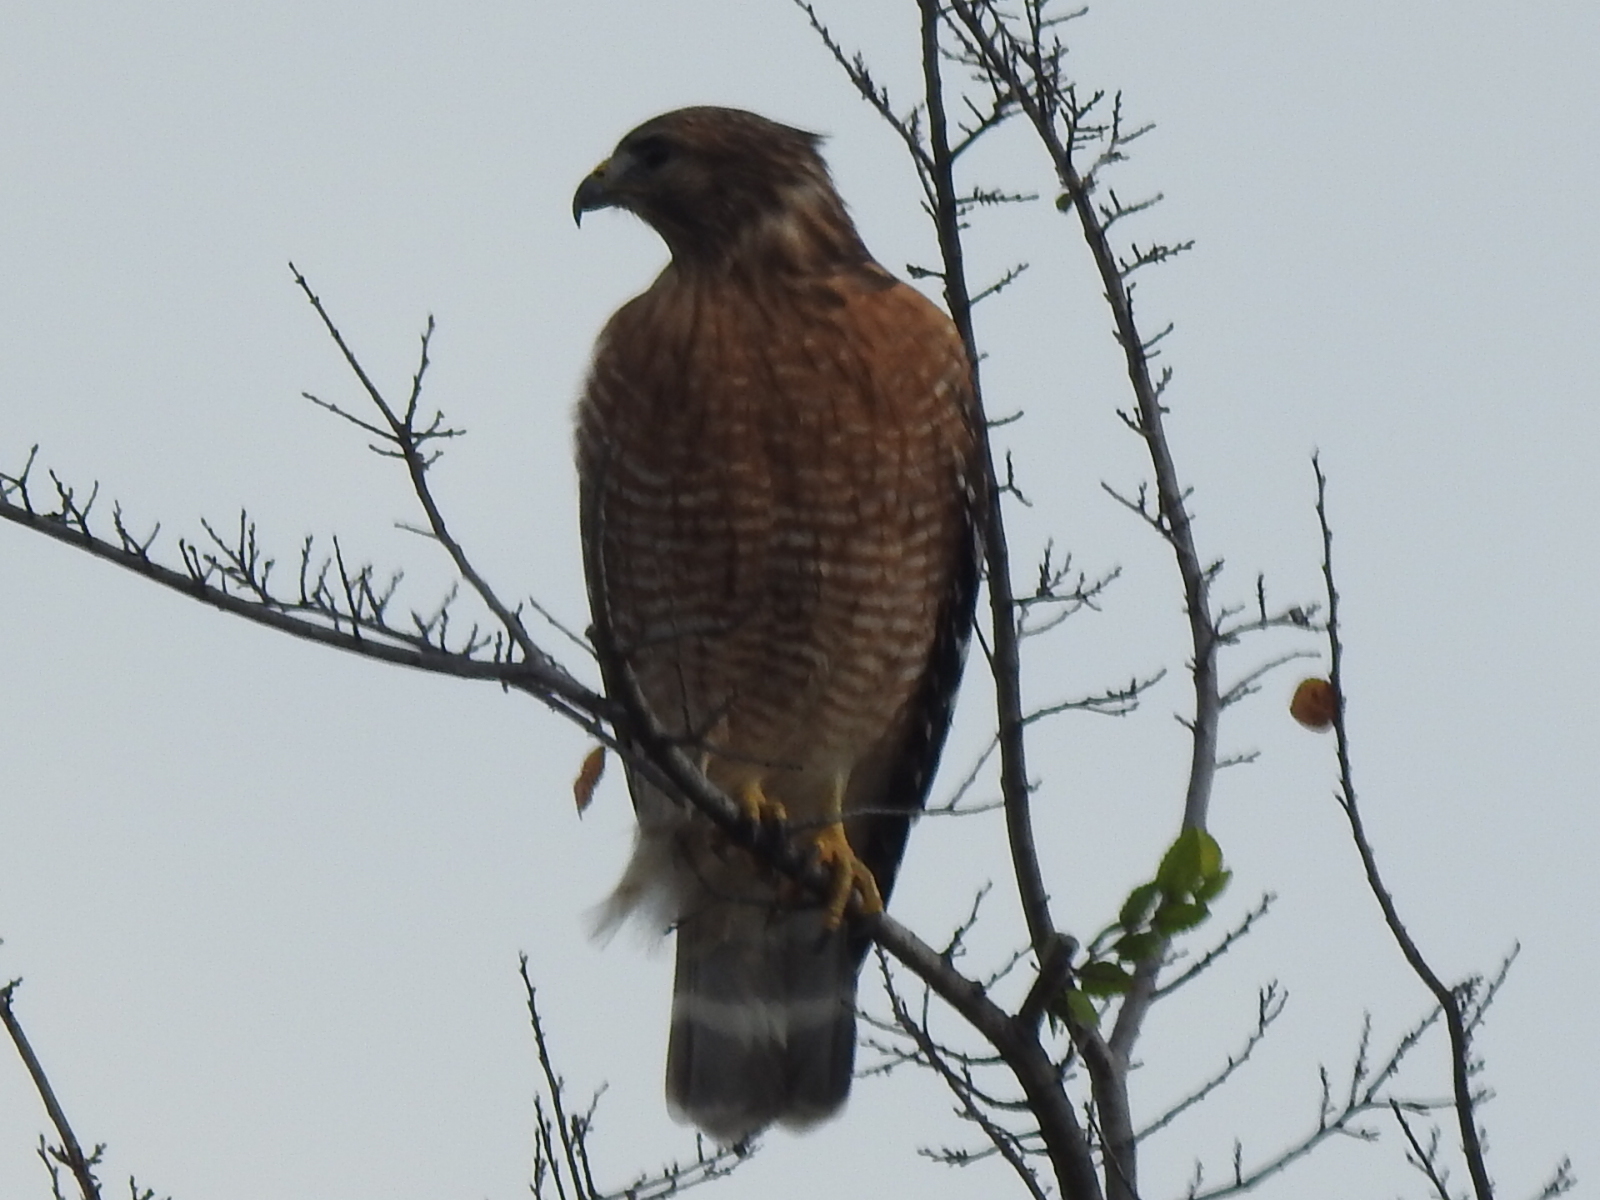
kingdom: Animalia
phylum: Chordata
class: Aves
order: Accipitriformes
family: Accipitridae
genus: Buteo
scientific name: Buteo lineatus
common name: Red-shouldered hawk
